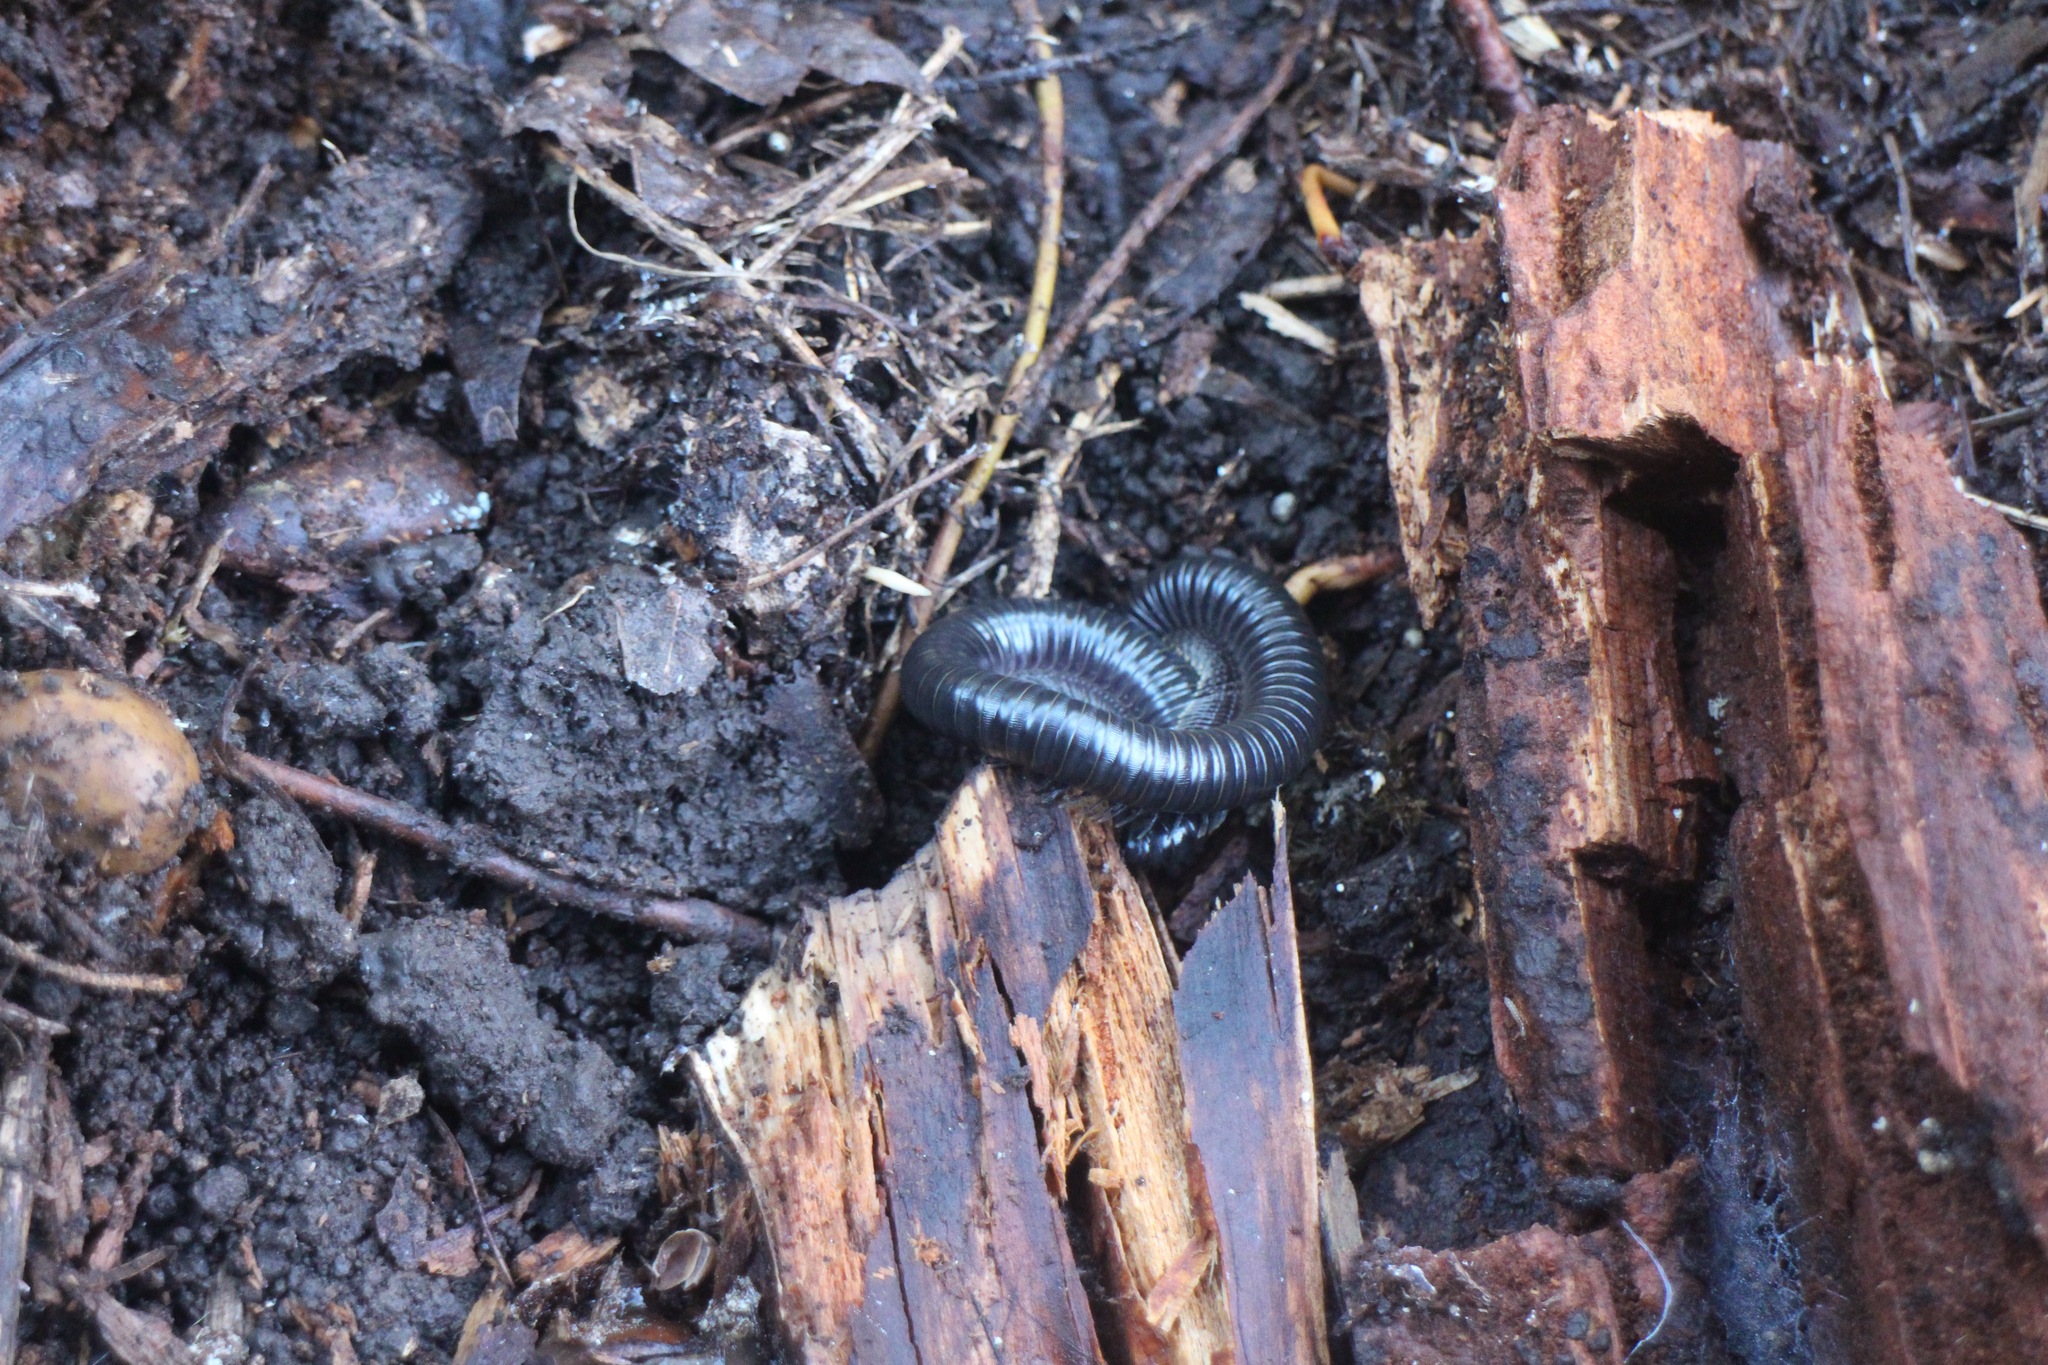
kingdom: Animalia
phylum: Arthropoda
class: Diplopoda
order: Julida
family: Paeromopodidae
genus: Paeromopus
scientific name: Paeromopus angusticeps
